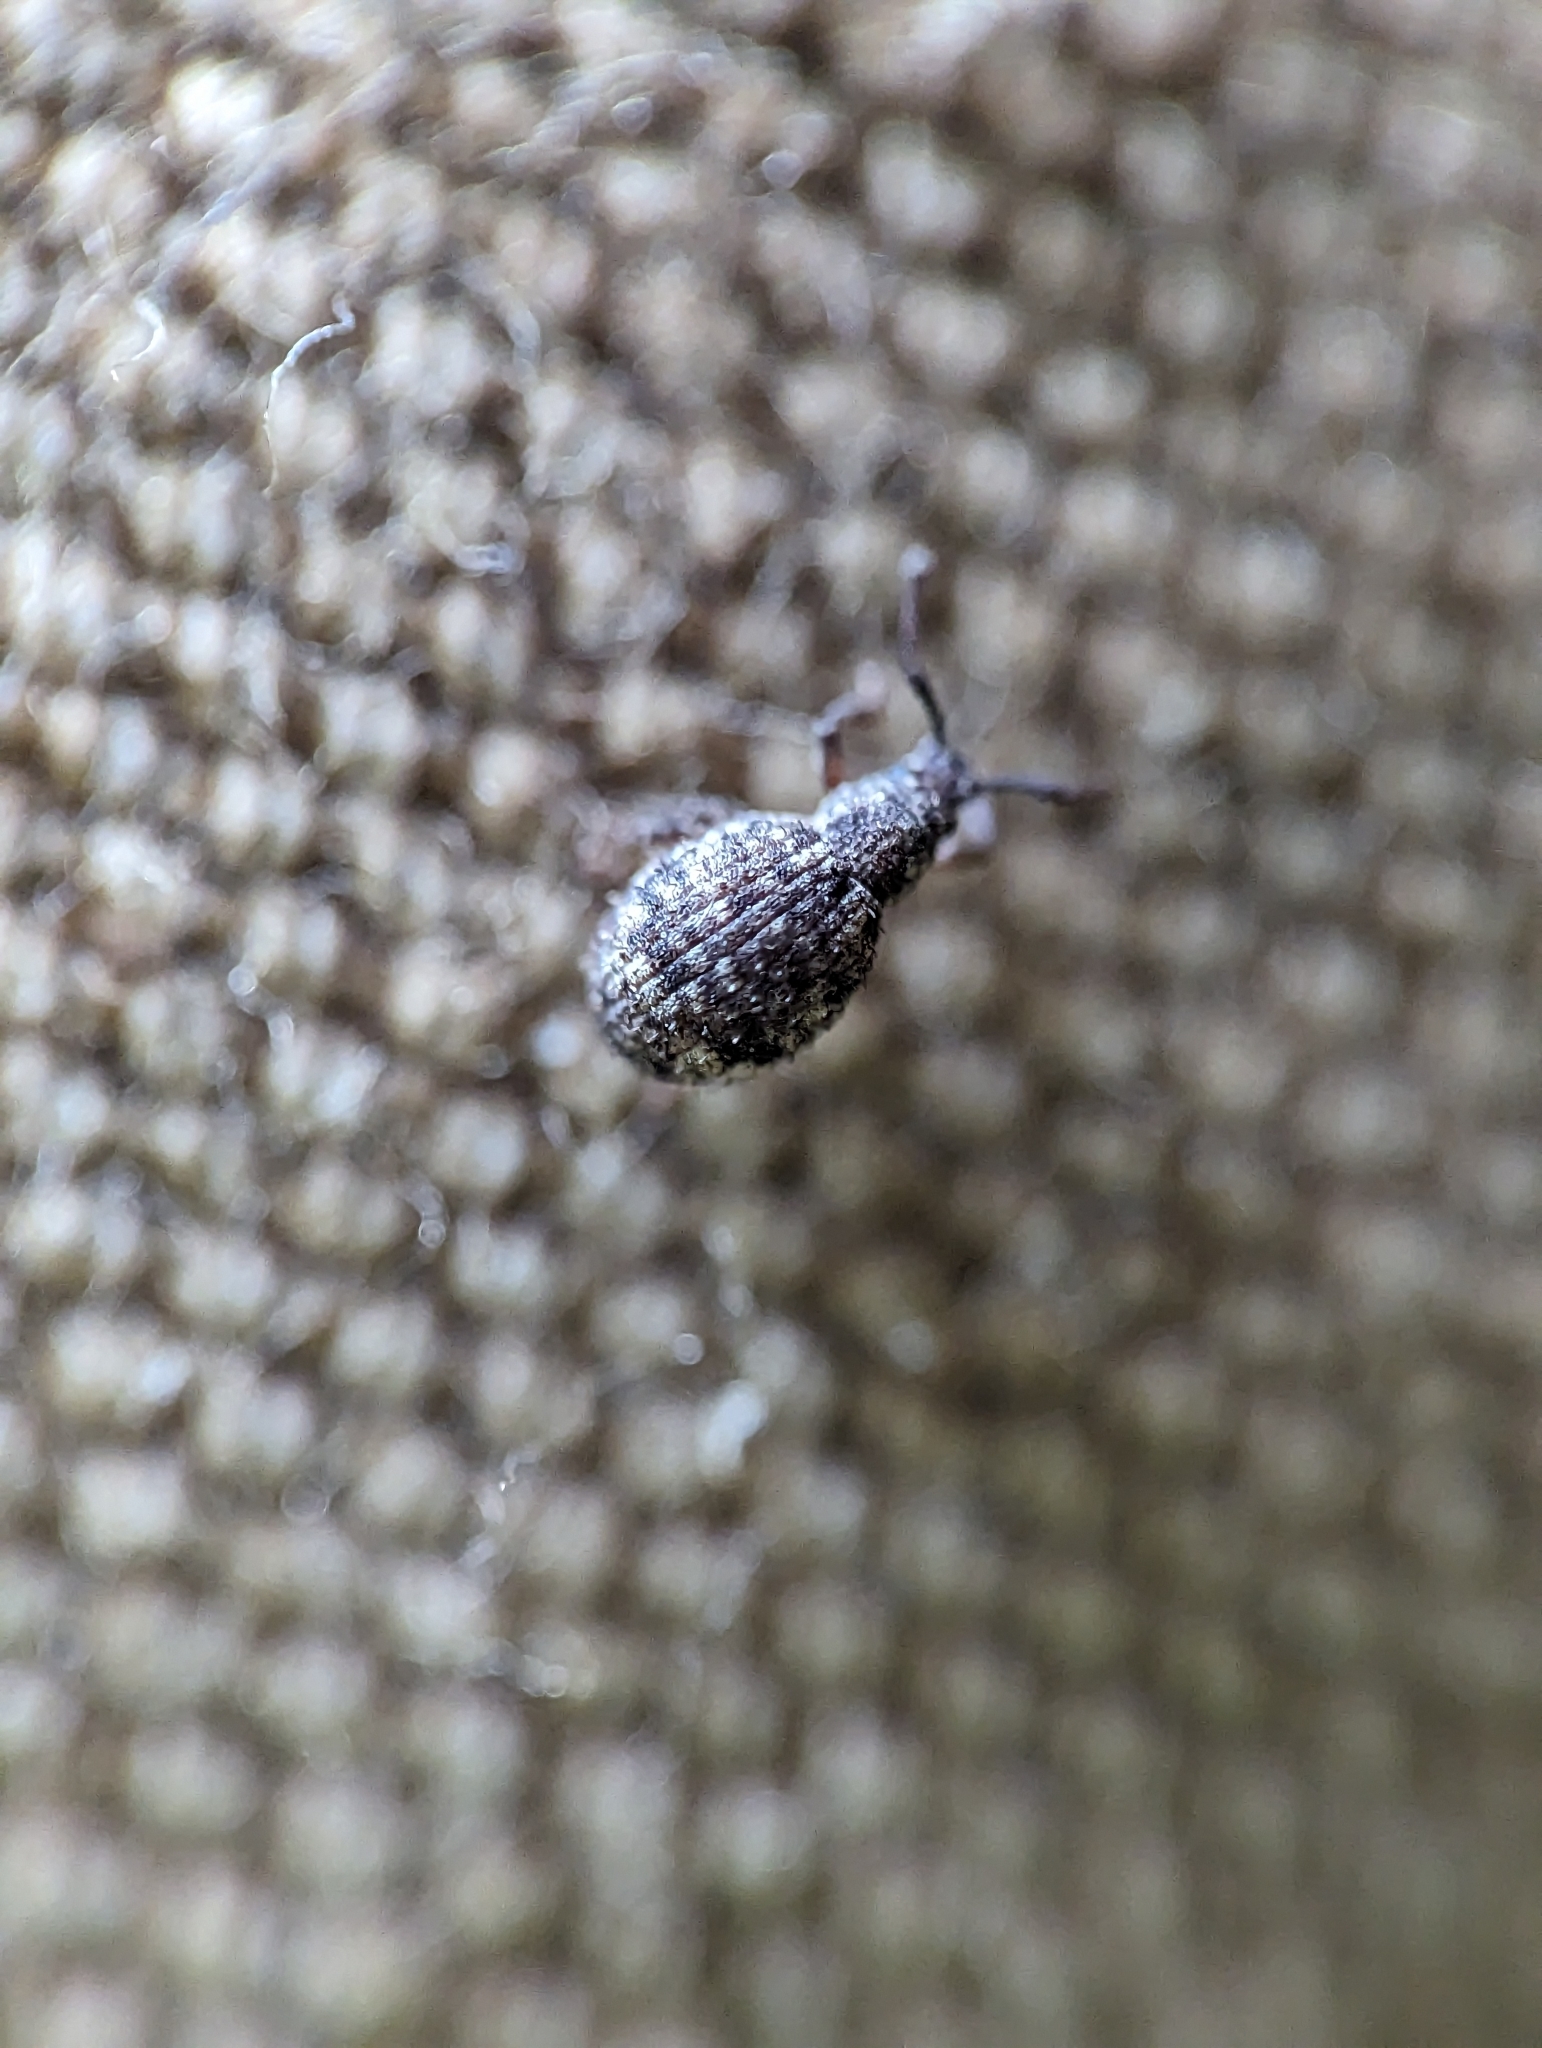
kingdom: Animalia
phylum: Arthropoda
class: Insecta
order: Coleoptera
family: Curculionidae
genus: Myosides
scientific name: Myosides seriehispidus
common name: Broadnosed weevil
